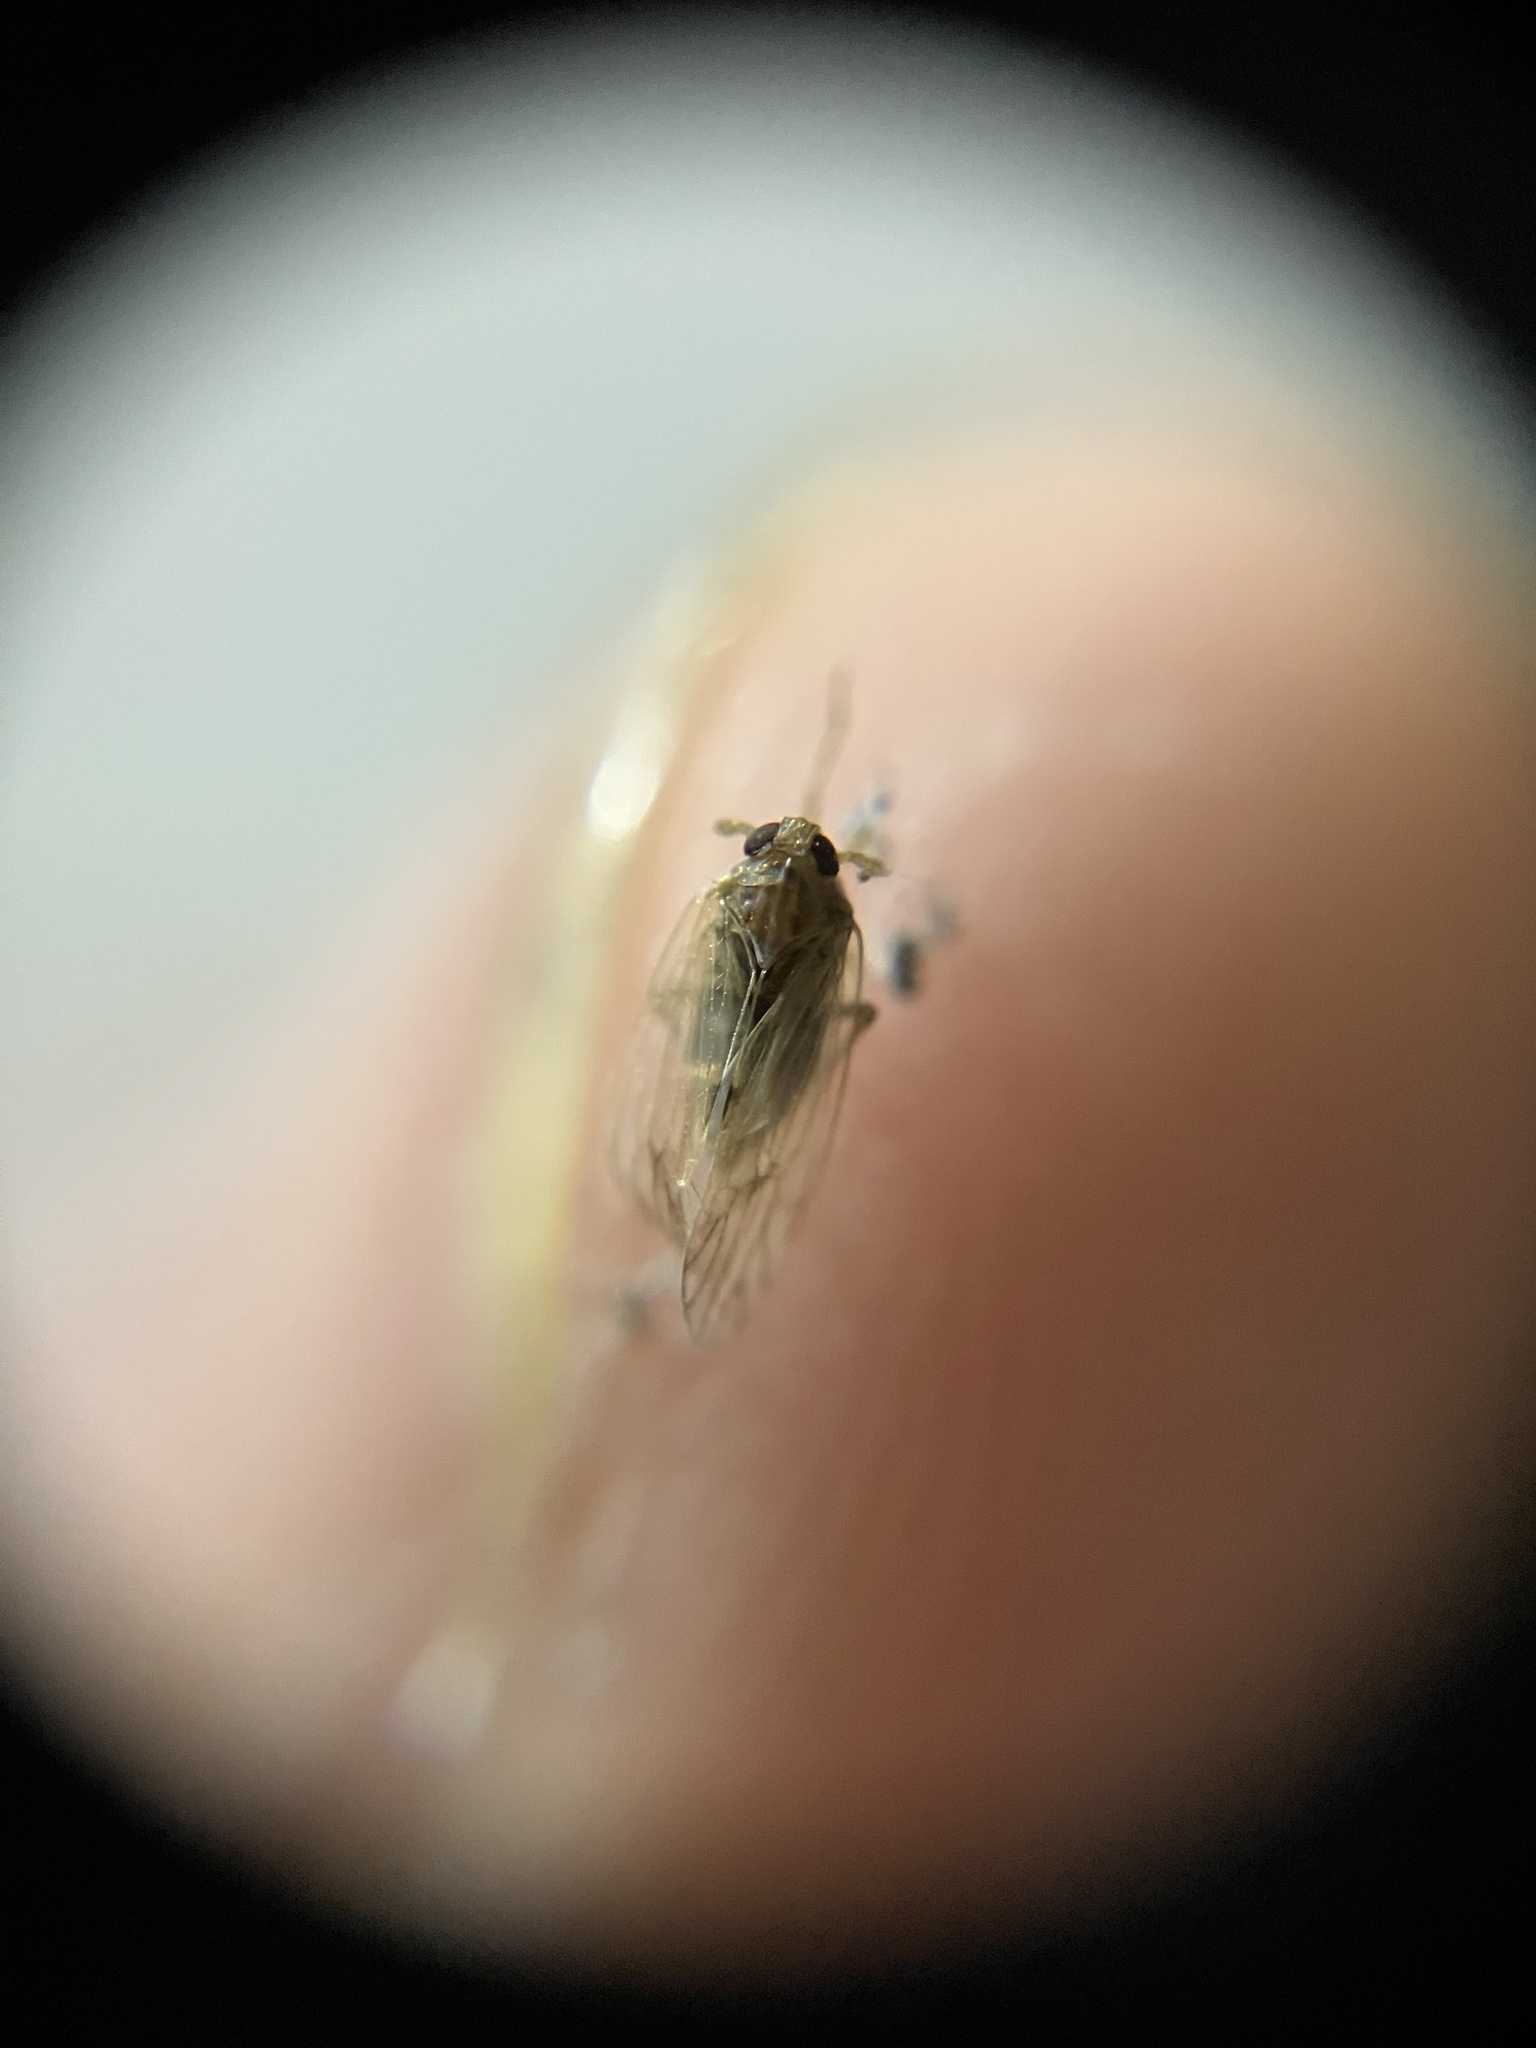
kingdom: Animalia
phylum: Arthropoda
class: Insecta
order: Hemiptera
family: Delphacidae
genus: Nilaparvata
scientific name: Nilaparvata lugens
